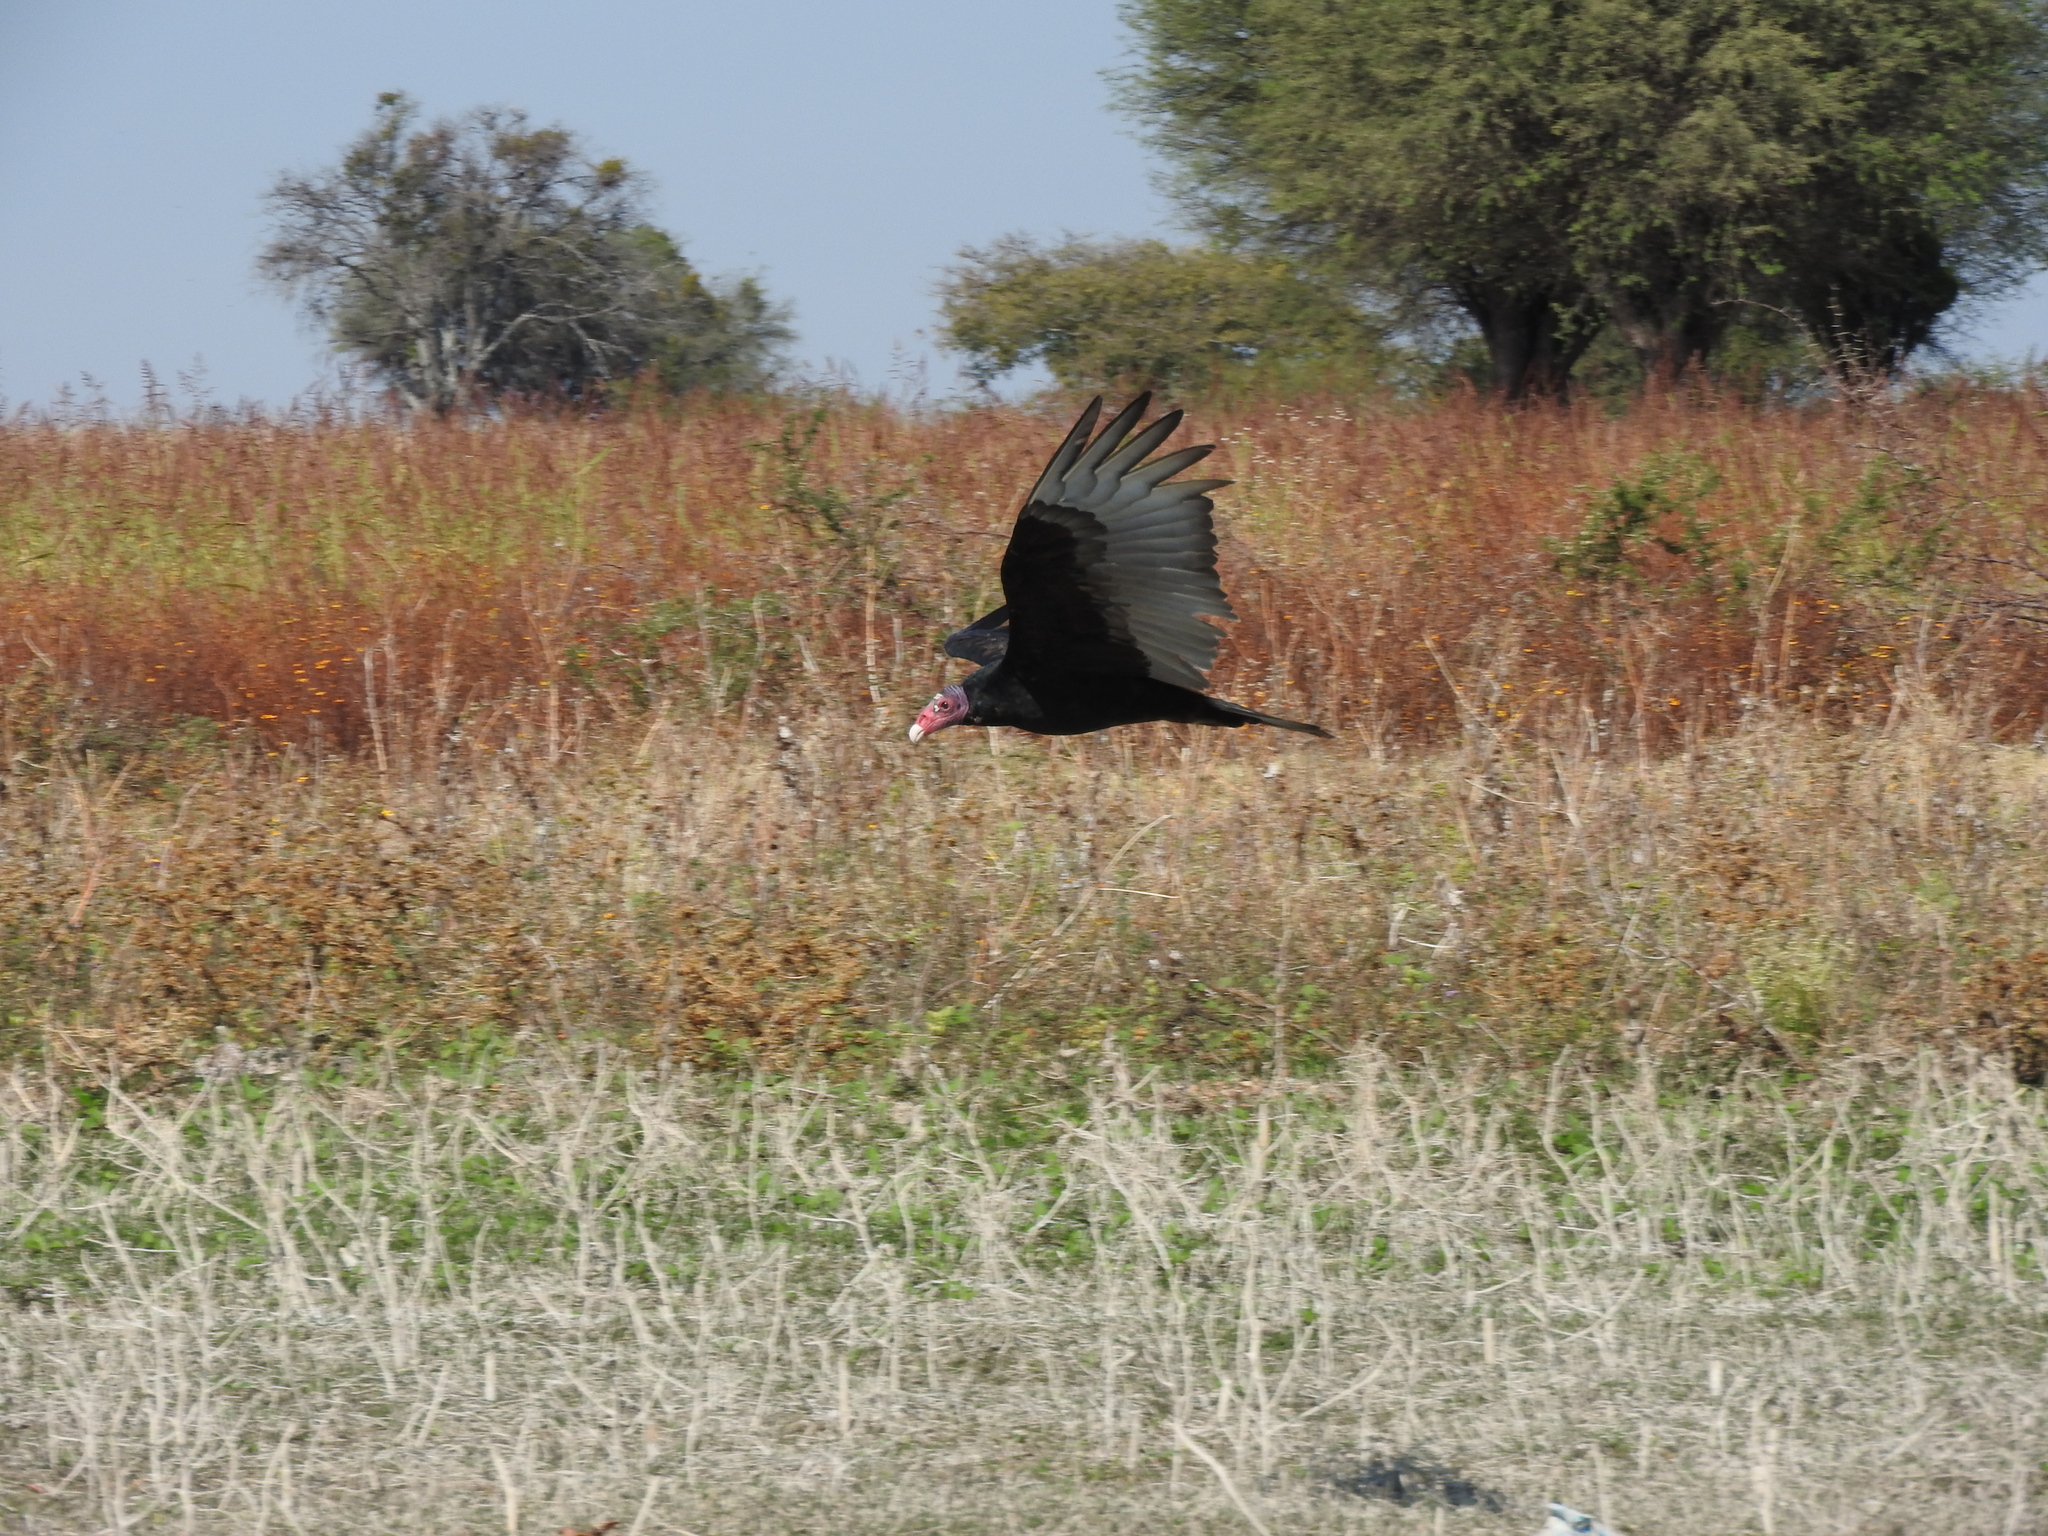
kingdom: Animalia
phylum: Chordata
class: Aves
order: Accipitriformes
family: Cathartidae
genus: Cathartes
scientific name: Cathartes aura
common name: Turkey vulture
